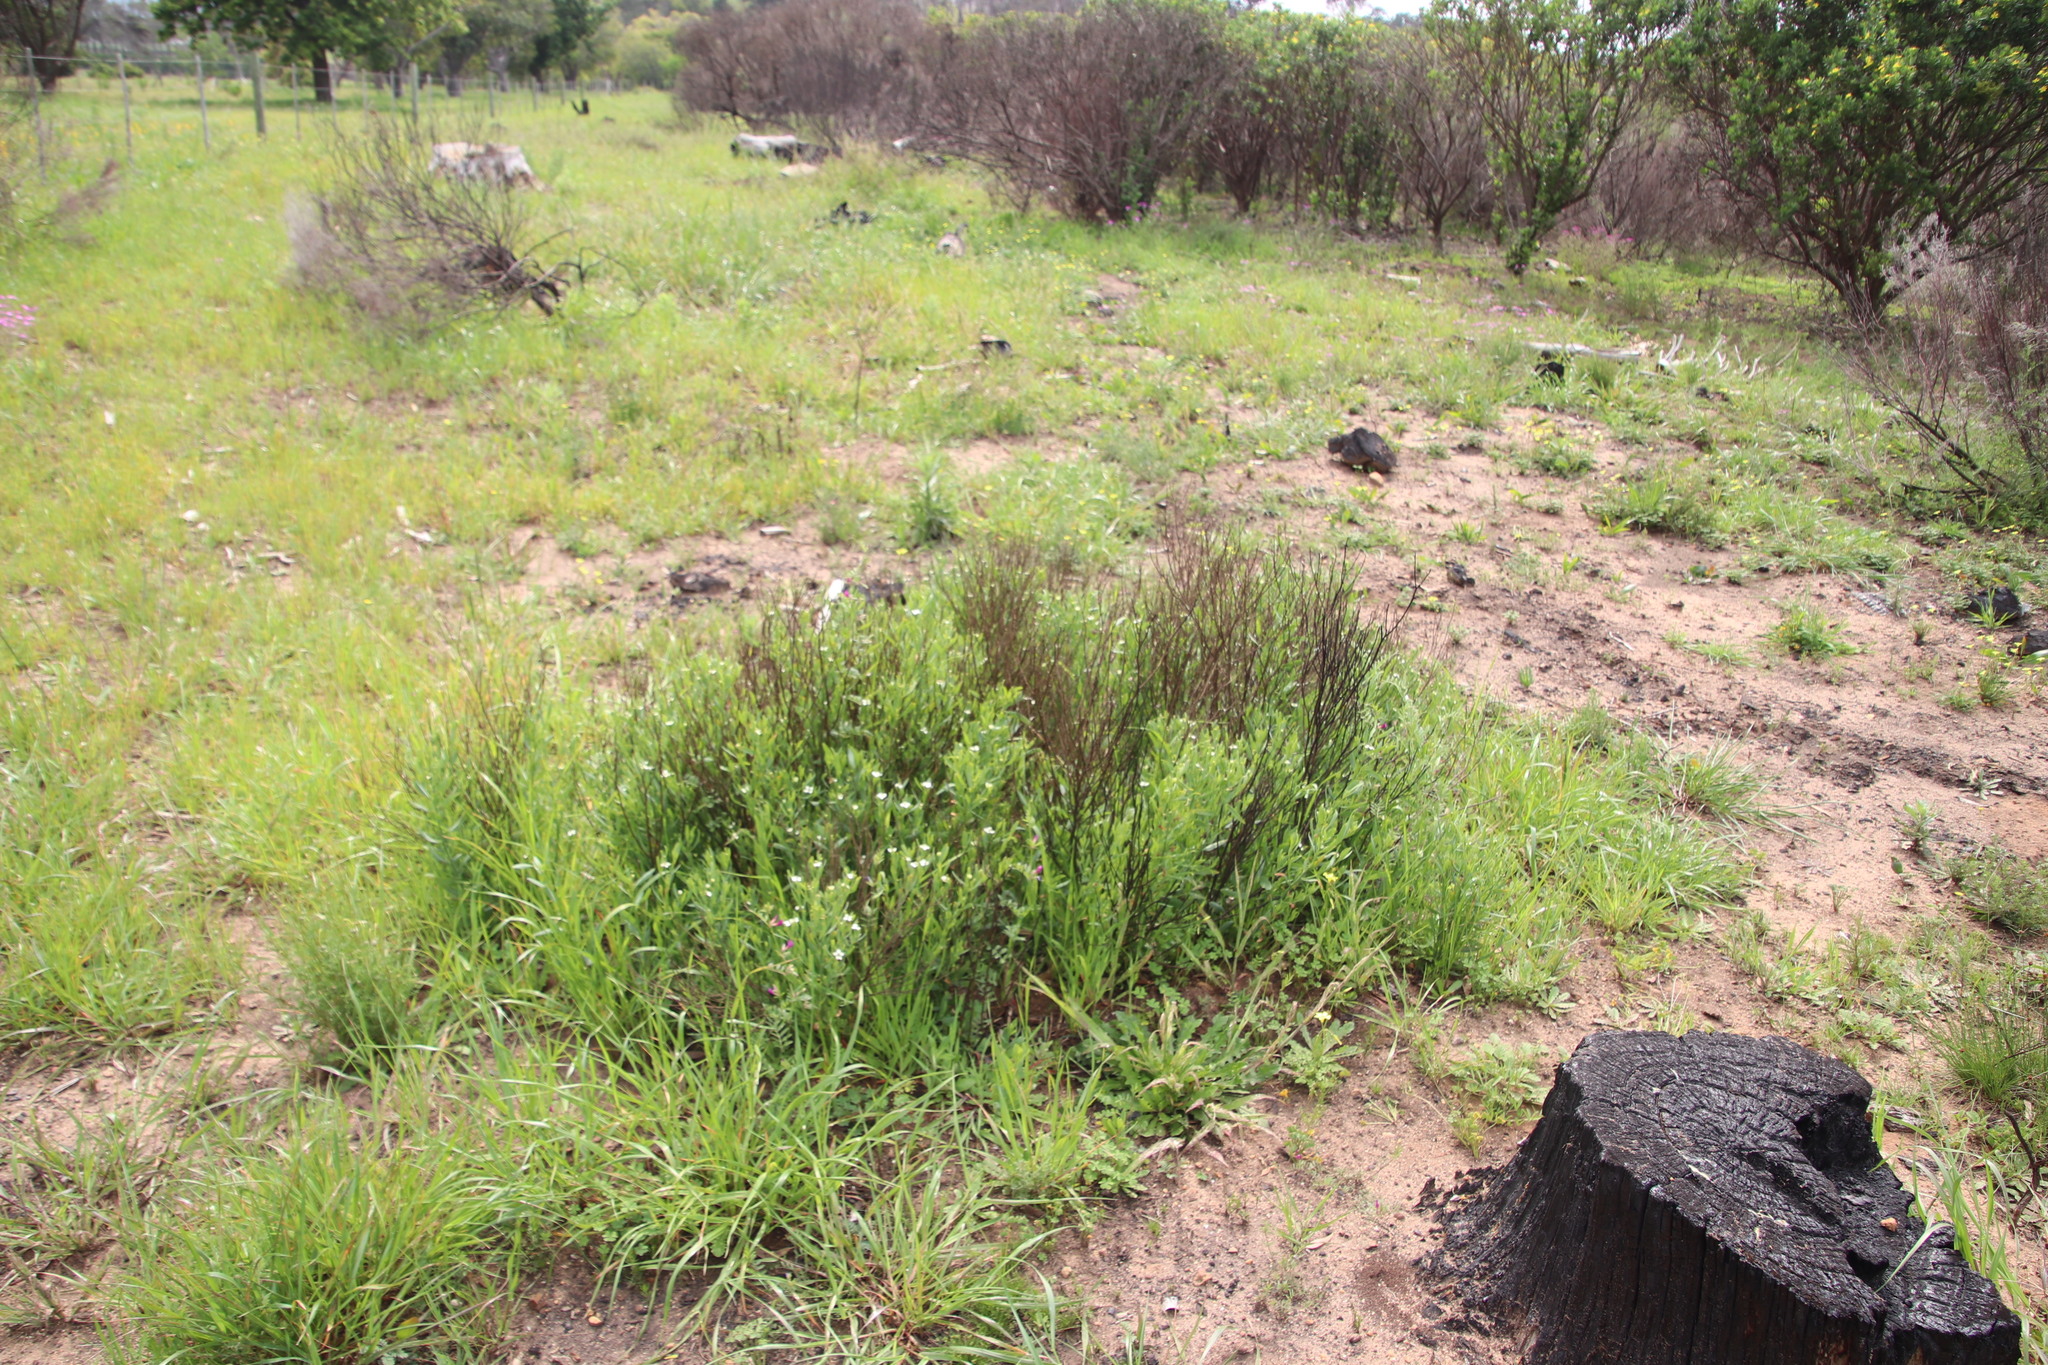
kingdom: Plantae
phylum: Tracheophyta
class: Magnoliopsida
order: Solanales
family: Montiniaceae
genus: Montinia
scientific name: Montinia caryophyllacea
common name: Wild clove-bush
